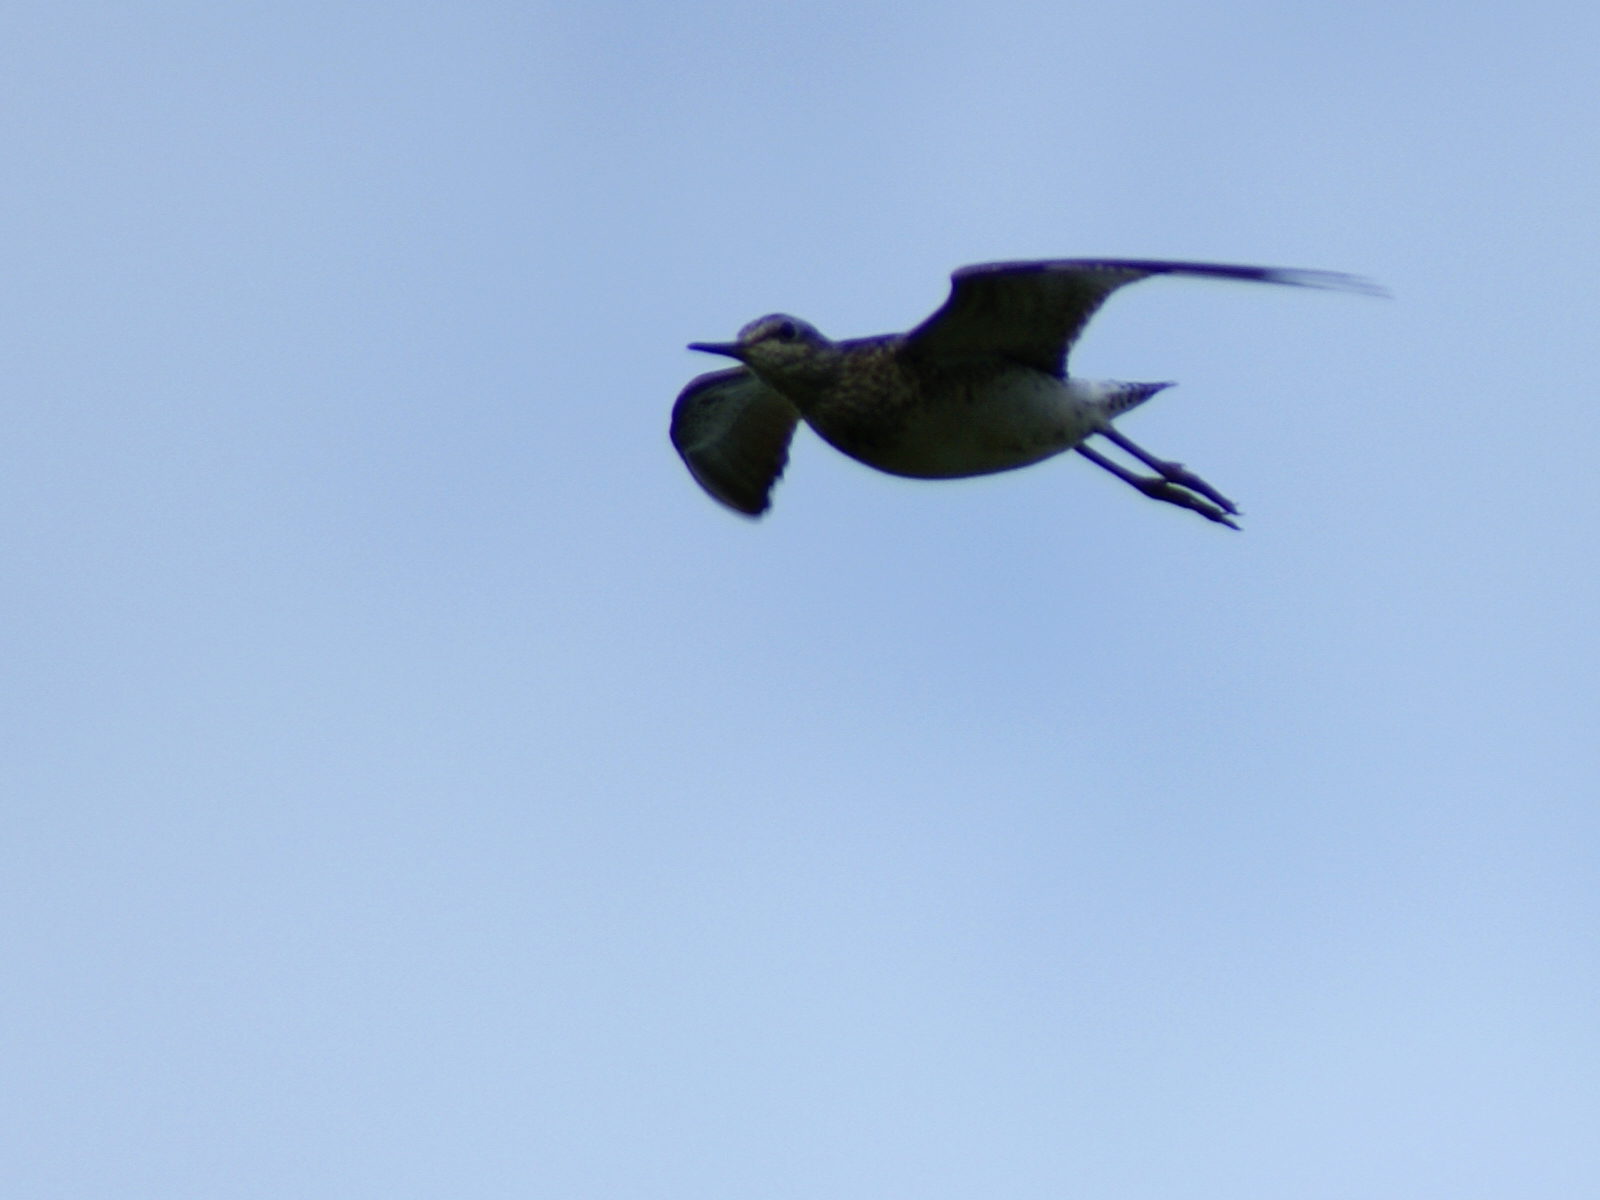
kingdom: Animalia
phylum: Chordata
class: Aves
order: Charadriiformes
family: Scolopacidae
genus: Tringa
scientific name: Tringa glareola
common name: Wood sandpiper
